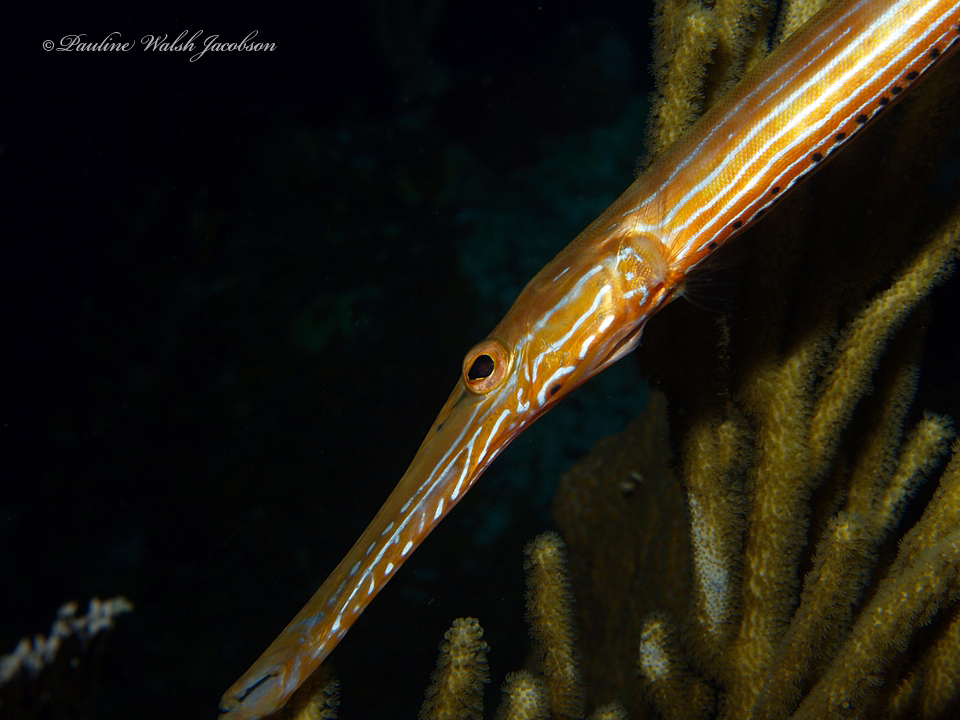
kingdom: Animalia
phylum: Chordata
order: Syngnathiformes
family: Aulostomidae
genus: Aulostomus
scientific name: Aulostomus maculatus
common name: West atlantic trumpetfish
